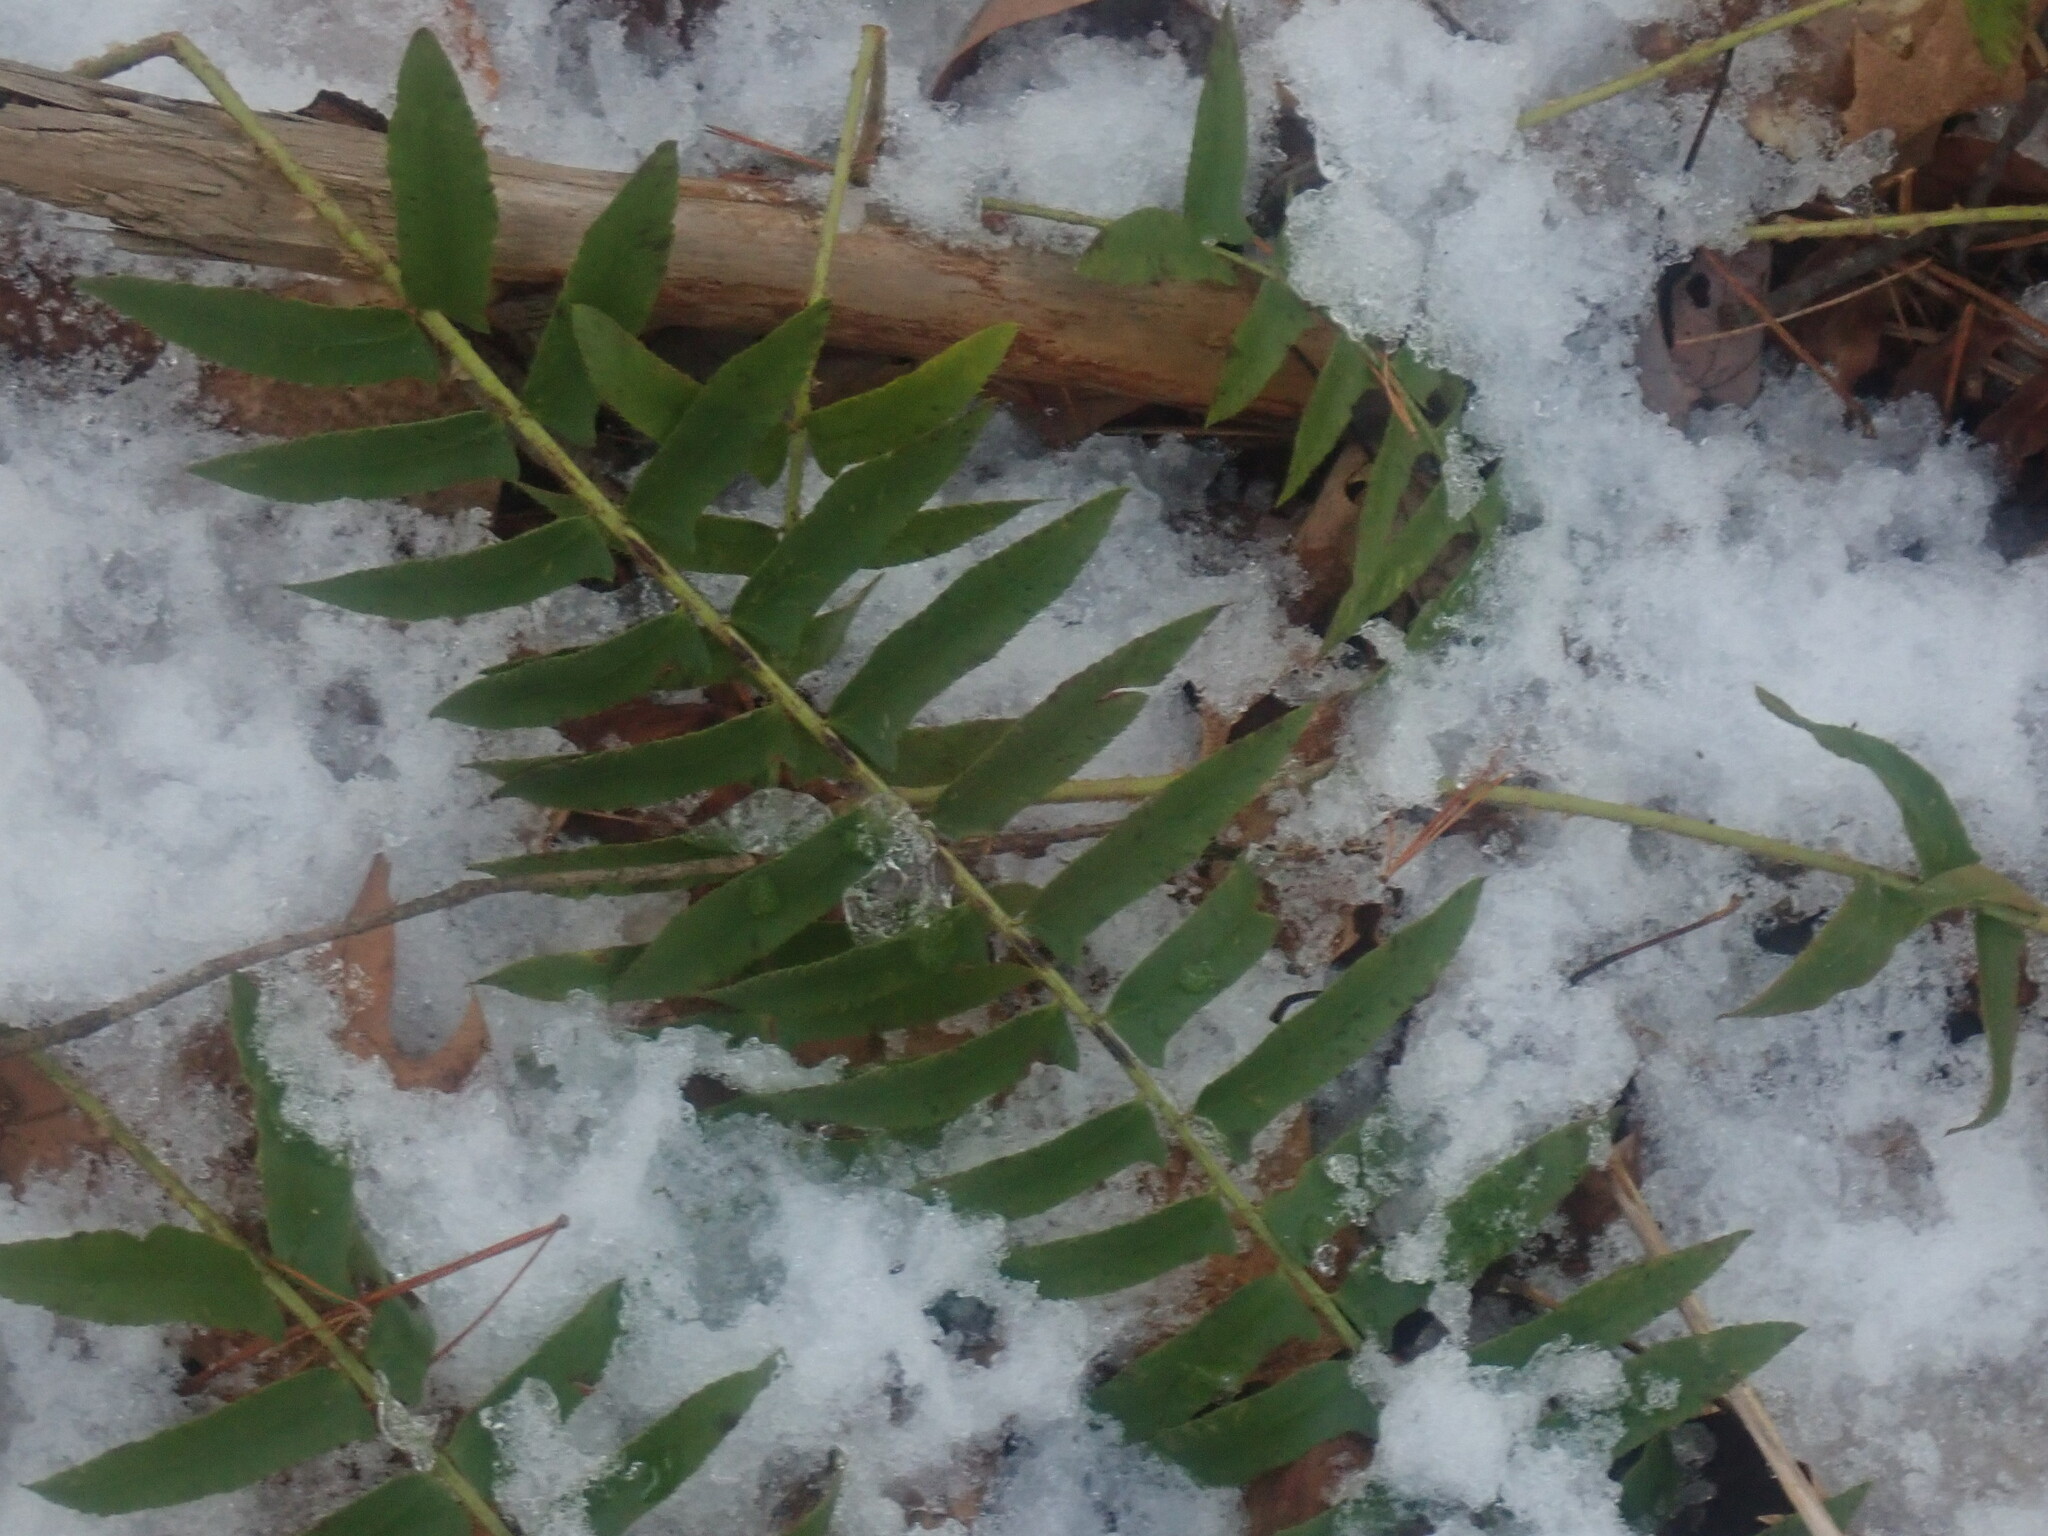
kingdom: Plantae
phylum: Tracheophyta
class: Polypodiopsida
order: Polypodiales
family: Dryopteridaceae
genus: Polystichum
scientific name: Polystichum acrostichoides
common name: Christmas fern
